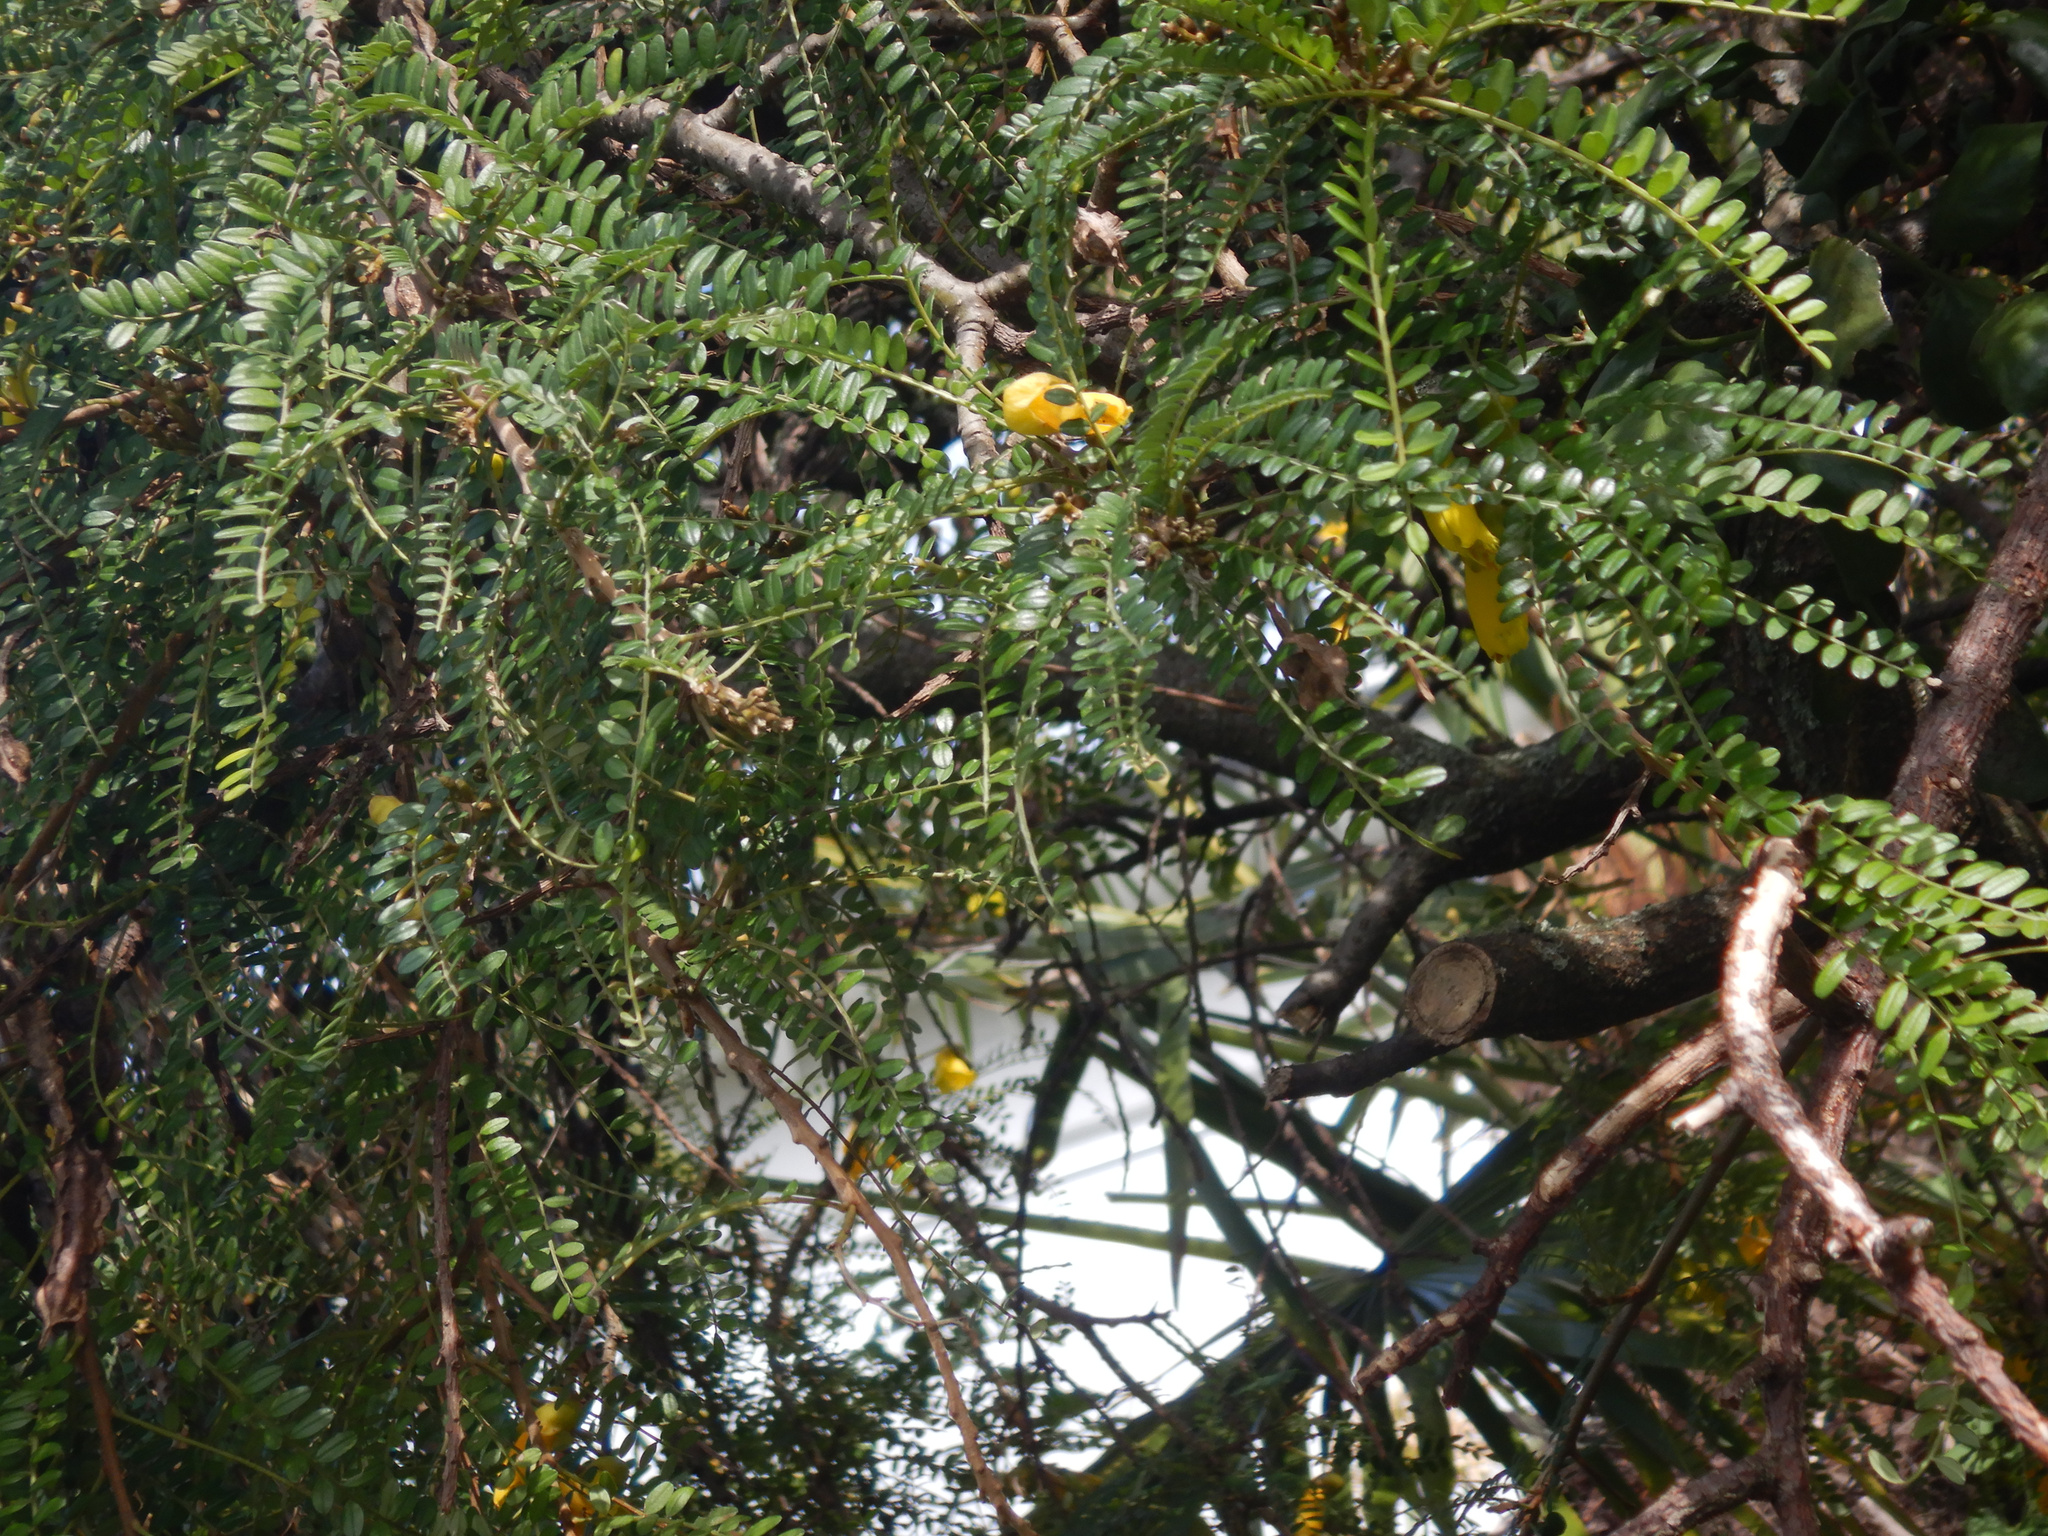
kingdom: Plantae
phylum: Tracheophyta
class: Magnoliopsida
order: Santalales
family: Loranthaceae
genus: Ileostylus
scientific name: Ileostylus micranthus
